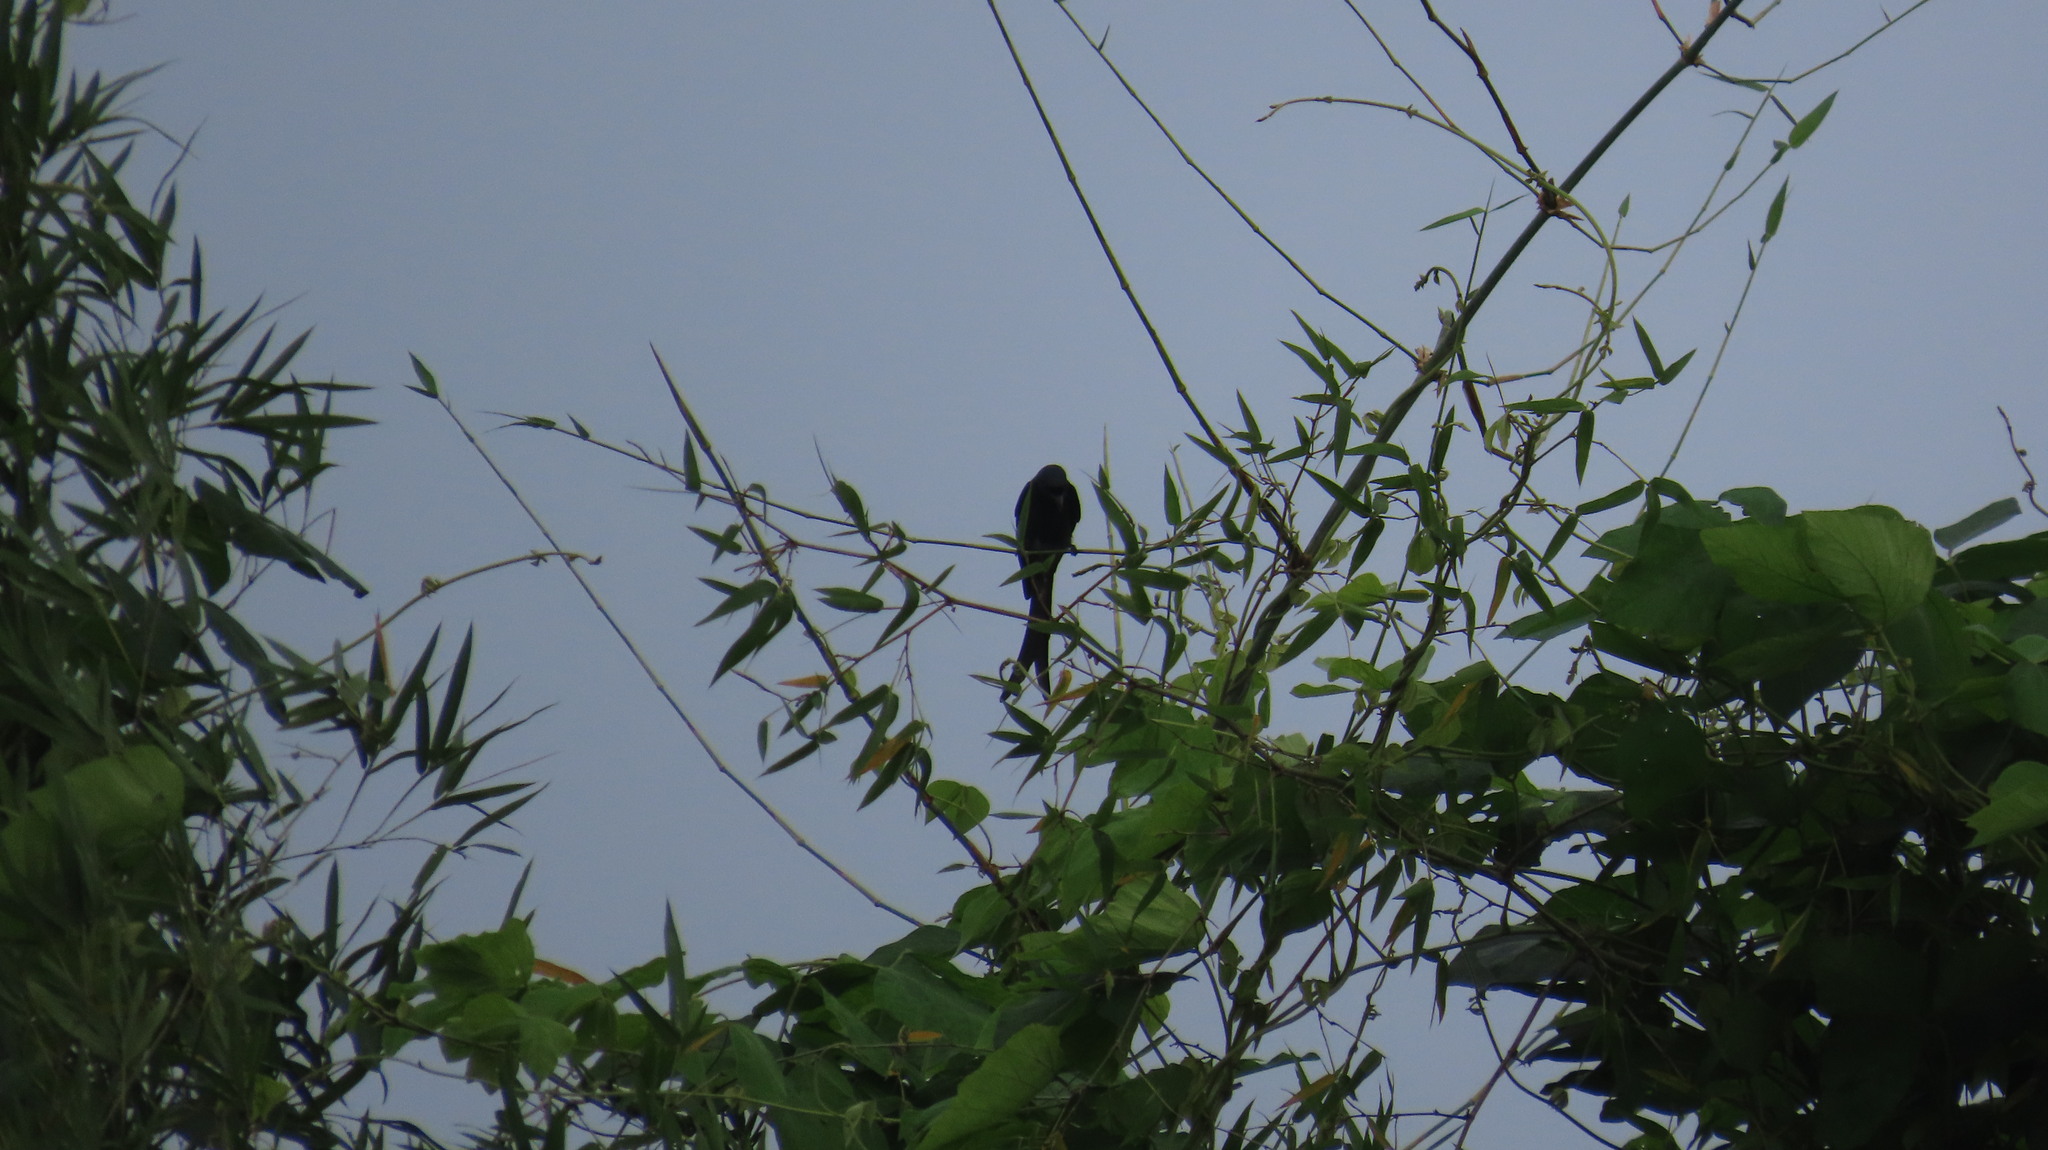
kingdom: Animalia
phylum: Chordata
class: Aves
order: Passeriformes
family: Dicruridae
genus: Dicrurus
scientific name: Dicrurus macrocercus
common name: Black drongo
